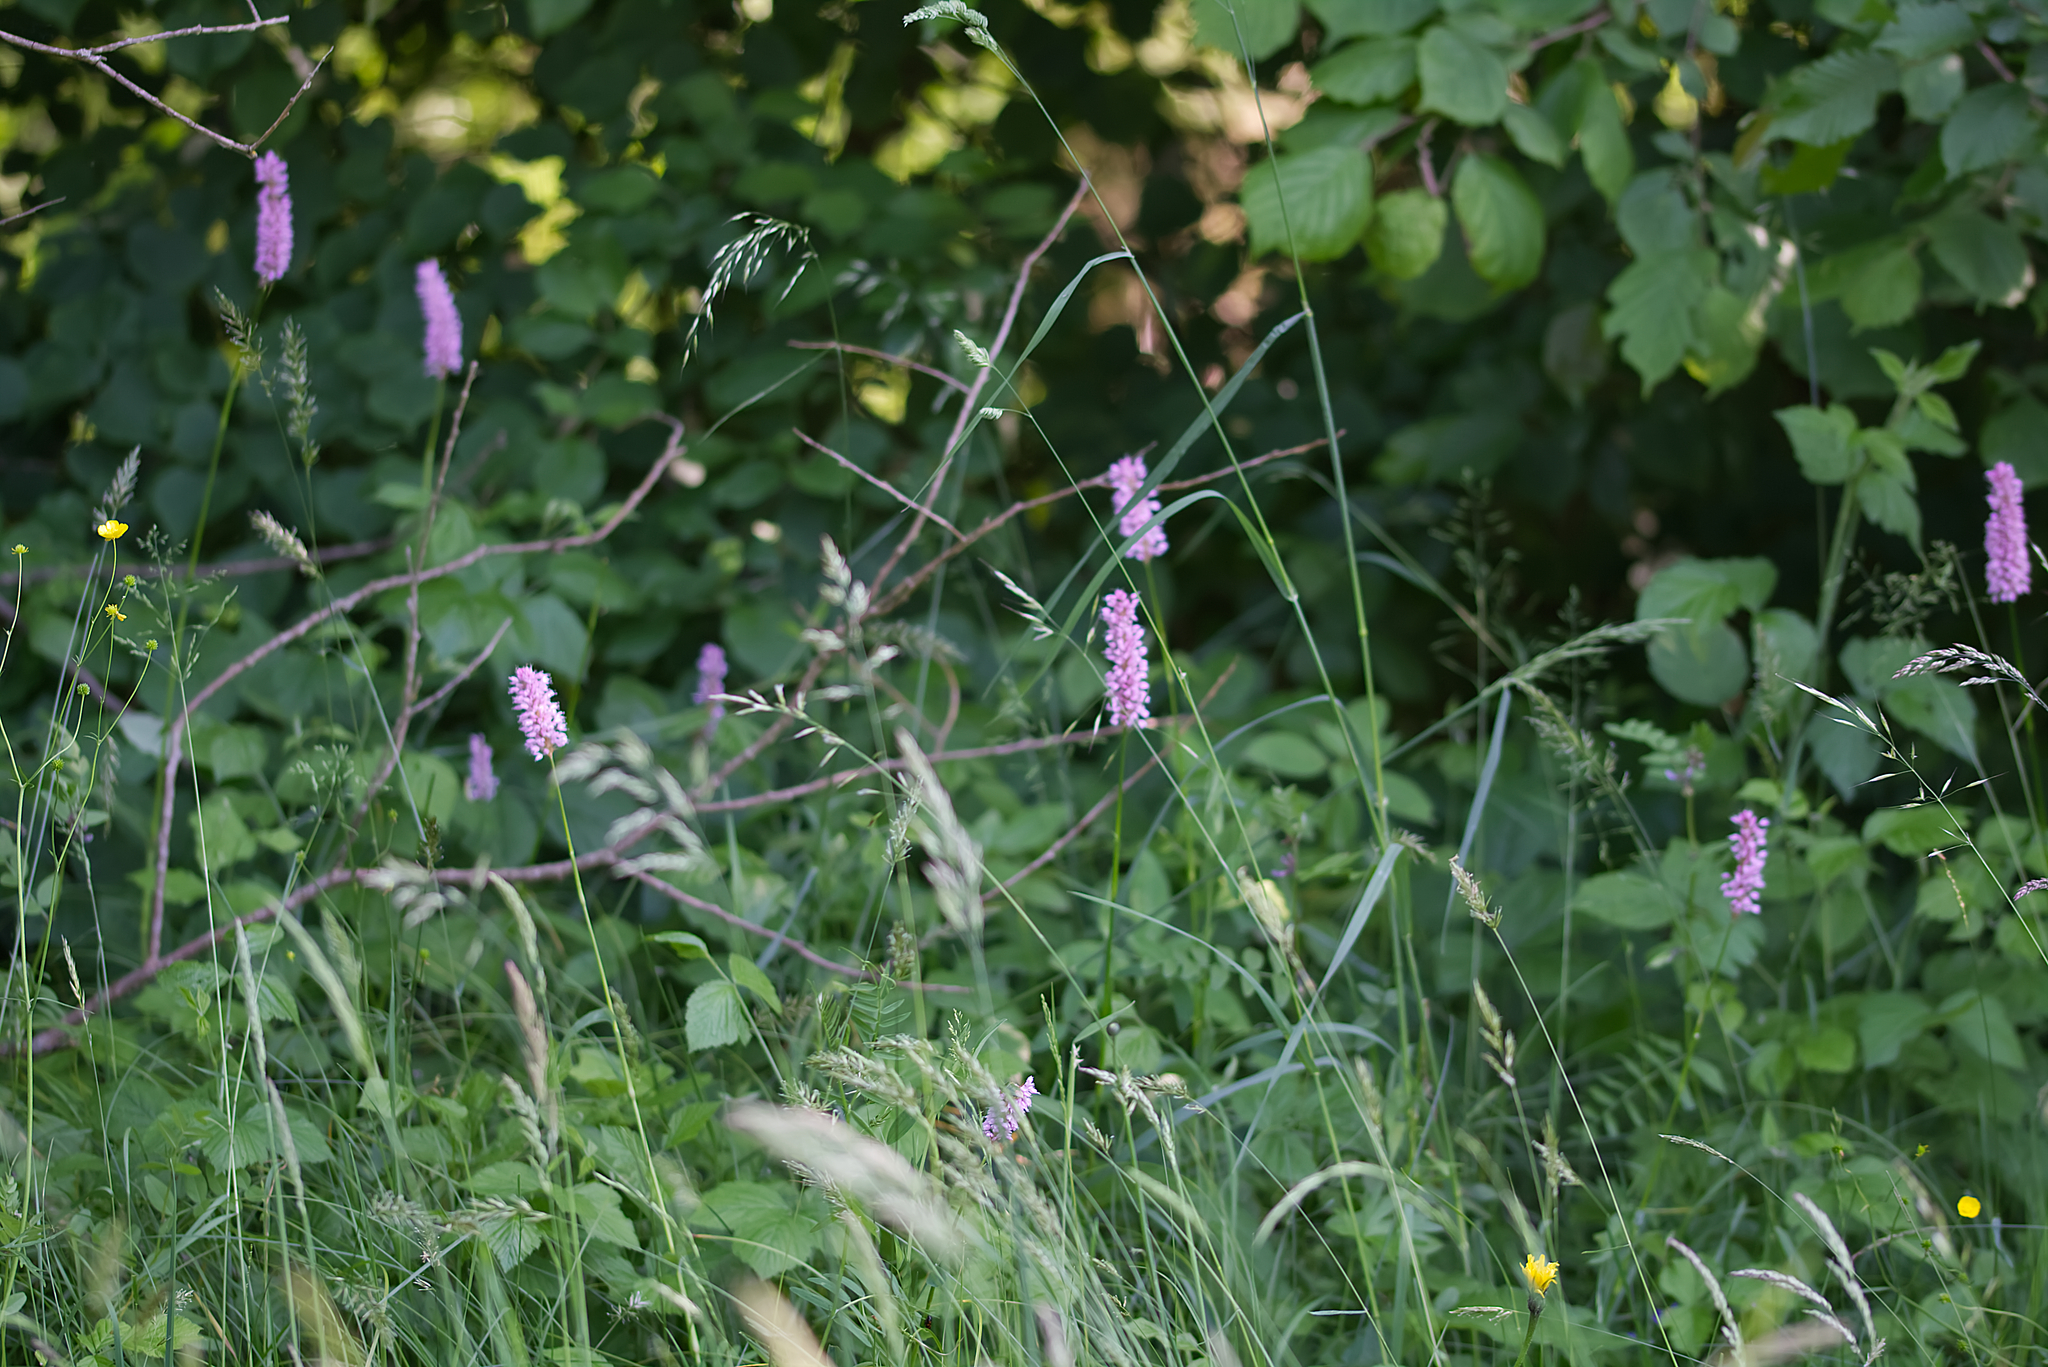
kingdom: Plantae
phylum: Tracheophyta
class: Magnoliopsida
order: Caryophyllales
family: Polygonaceae
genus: Bistorta
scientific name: Bistorta officinalis
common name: Common bistort
